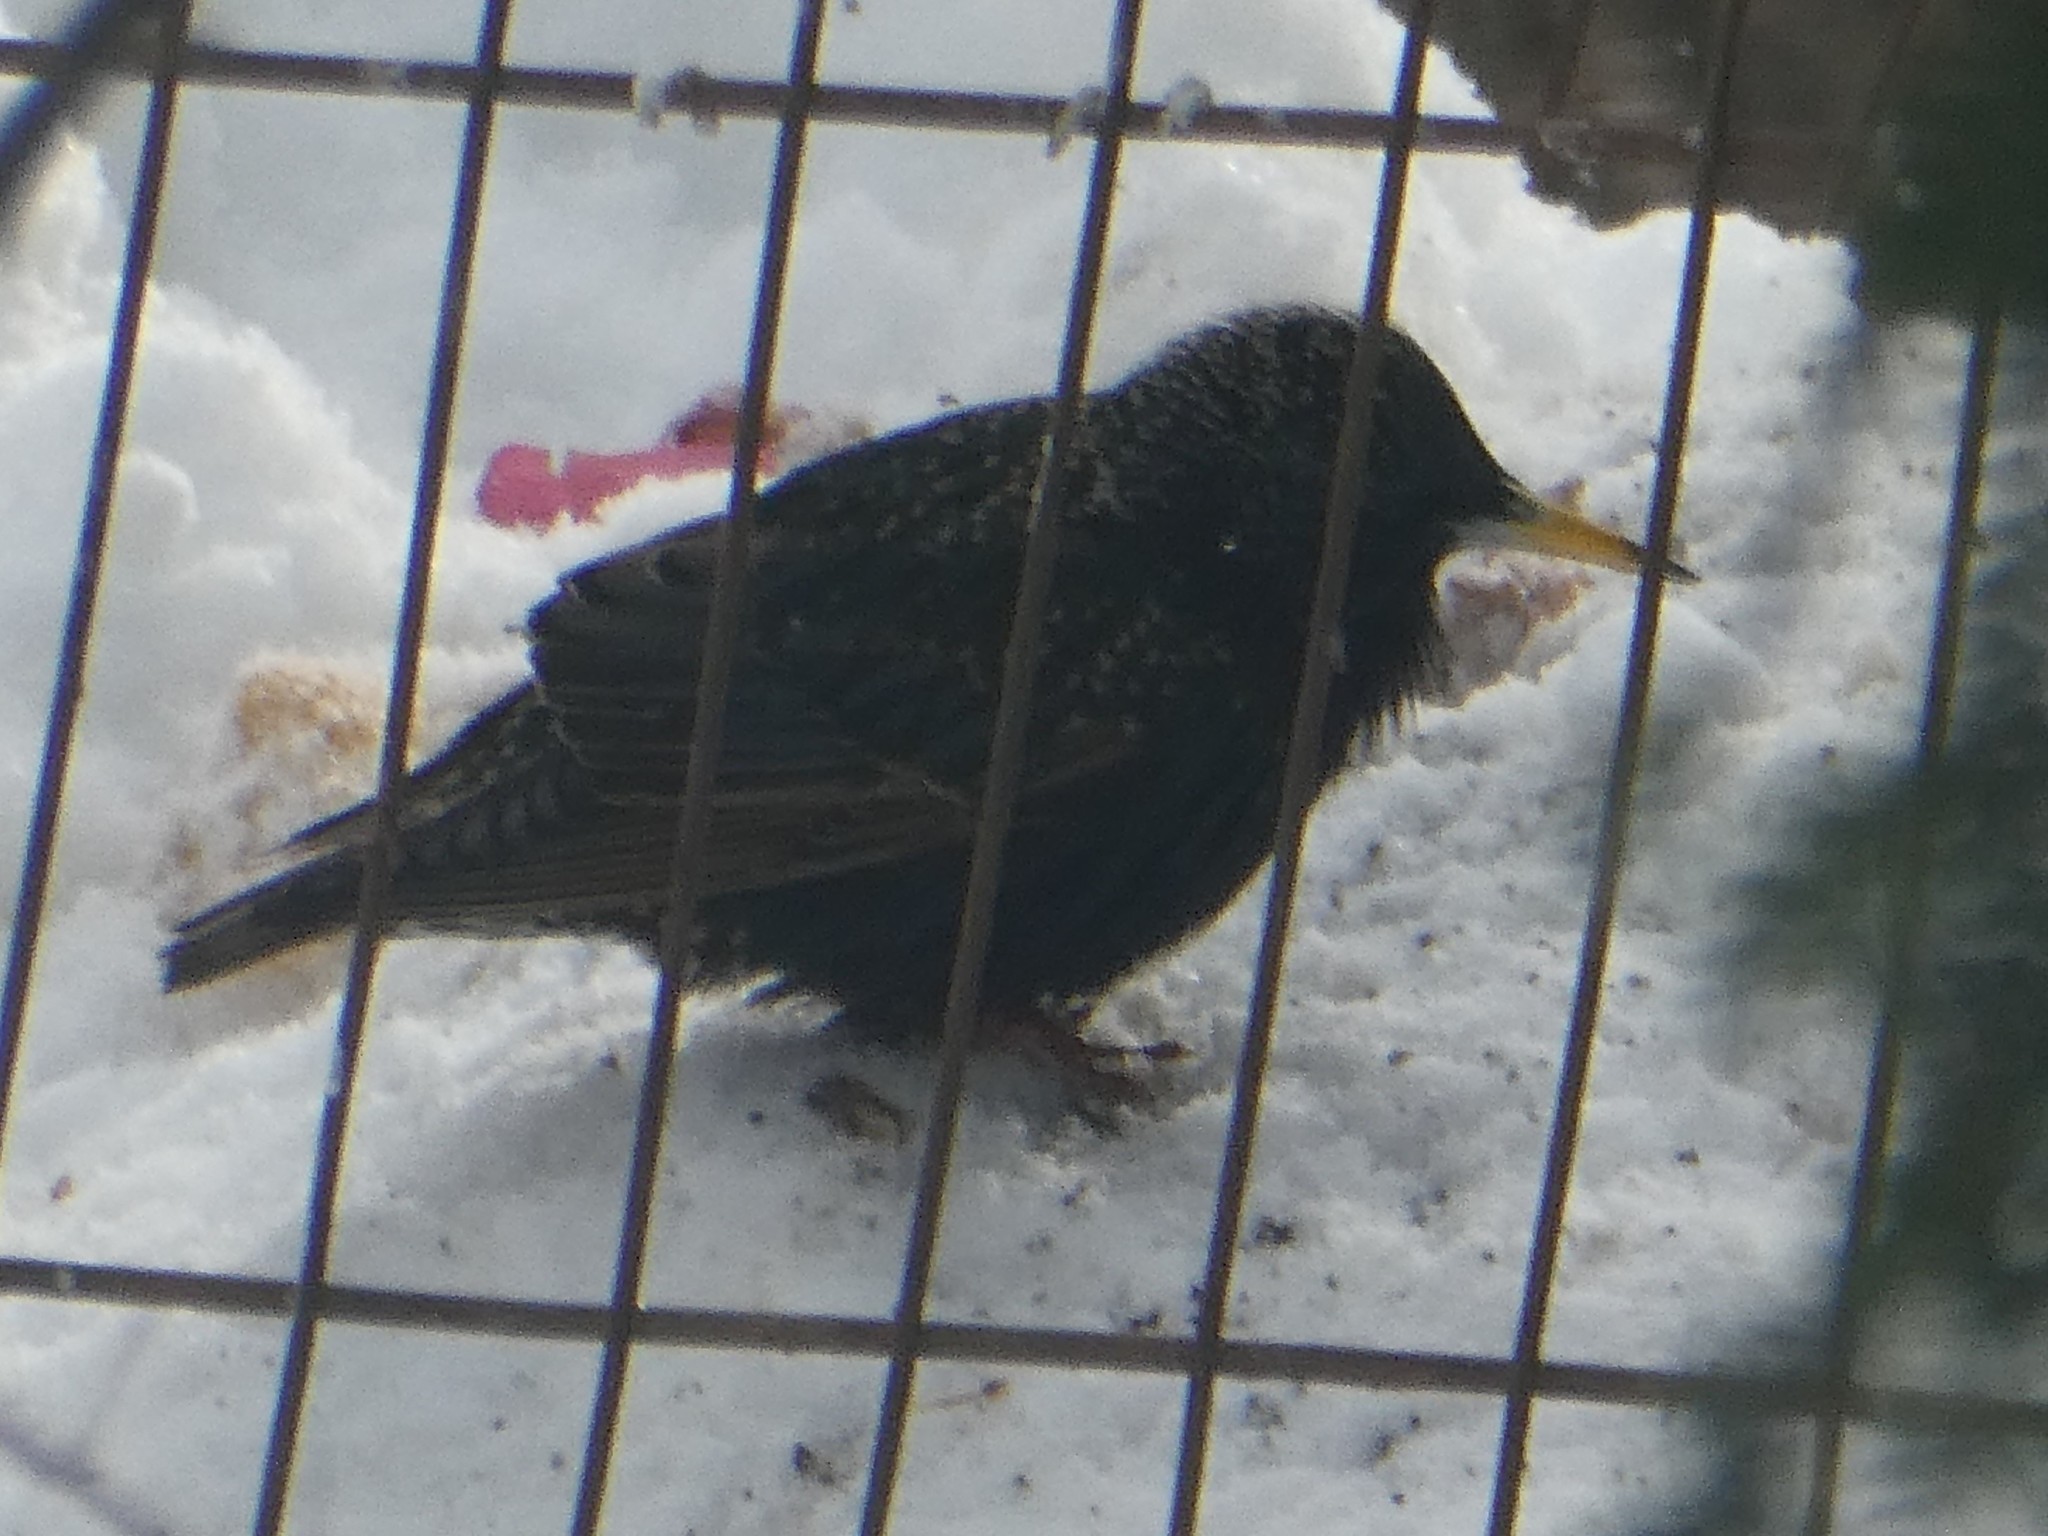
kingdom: Animalia
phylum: Chordata
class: Aves
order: Passeriformes
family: Sturnidae
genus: Sturnus
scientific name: Sturnus vulgaris
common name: Common starling
